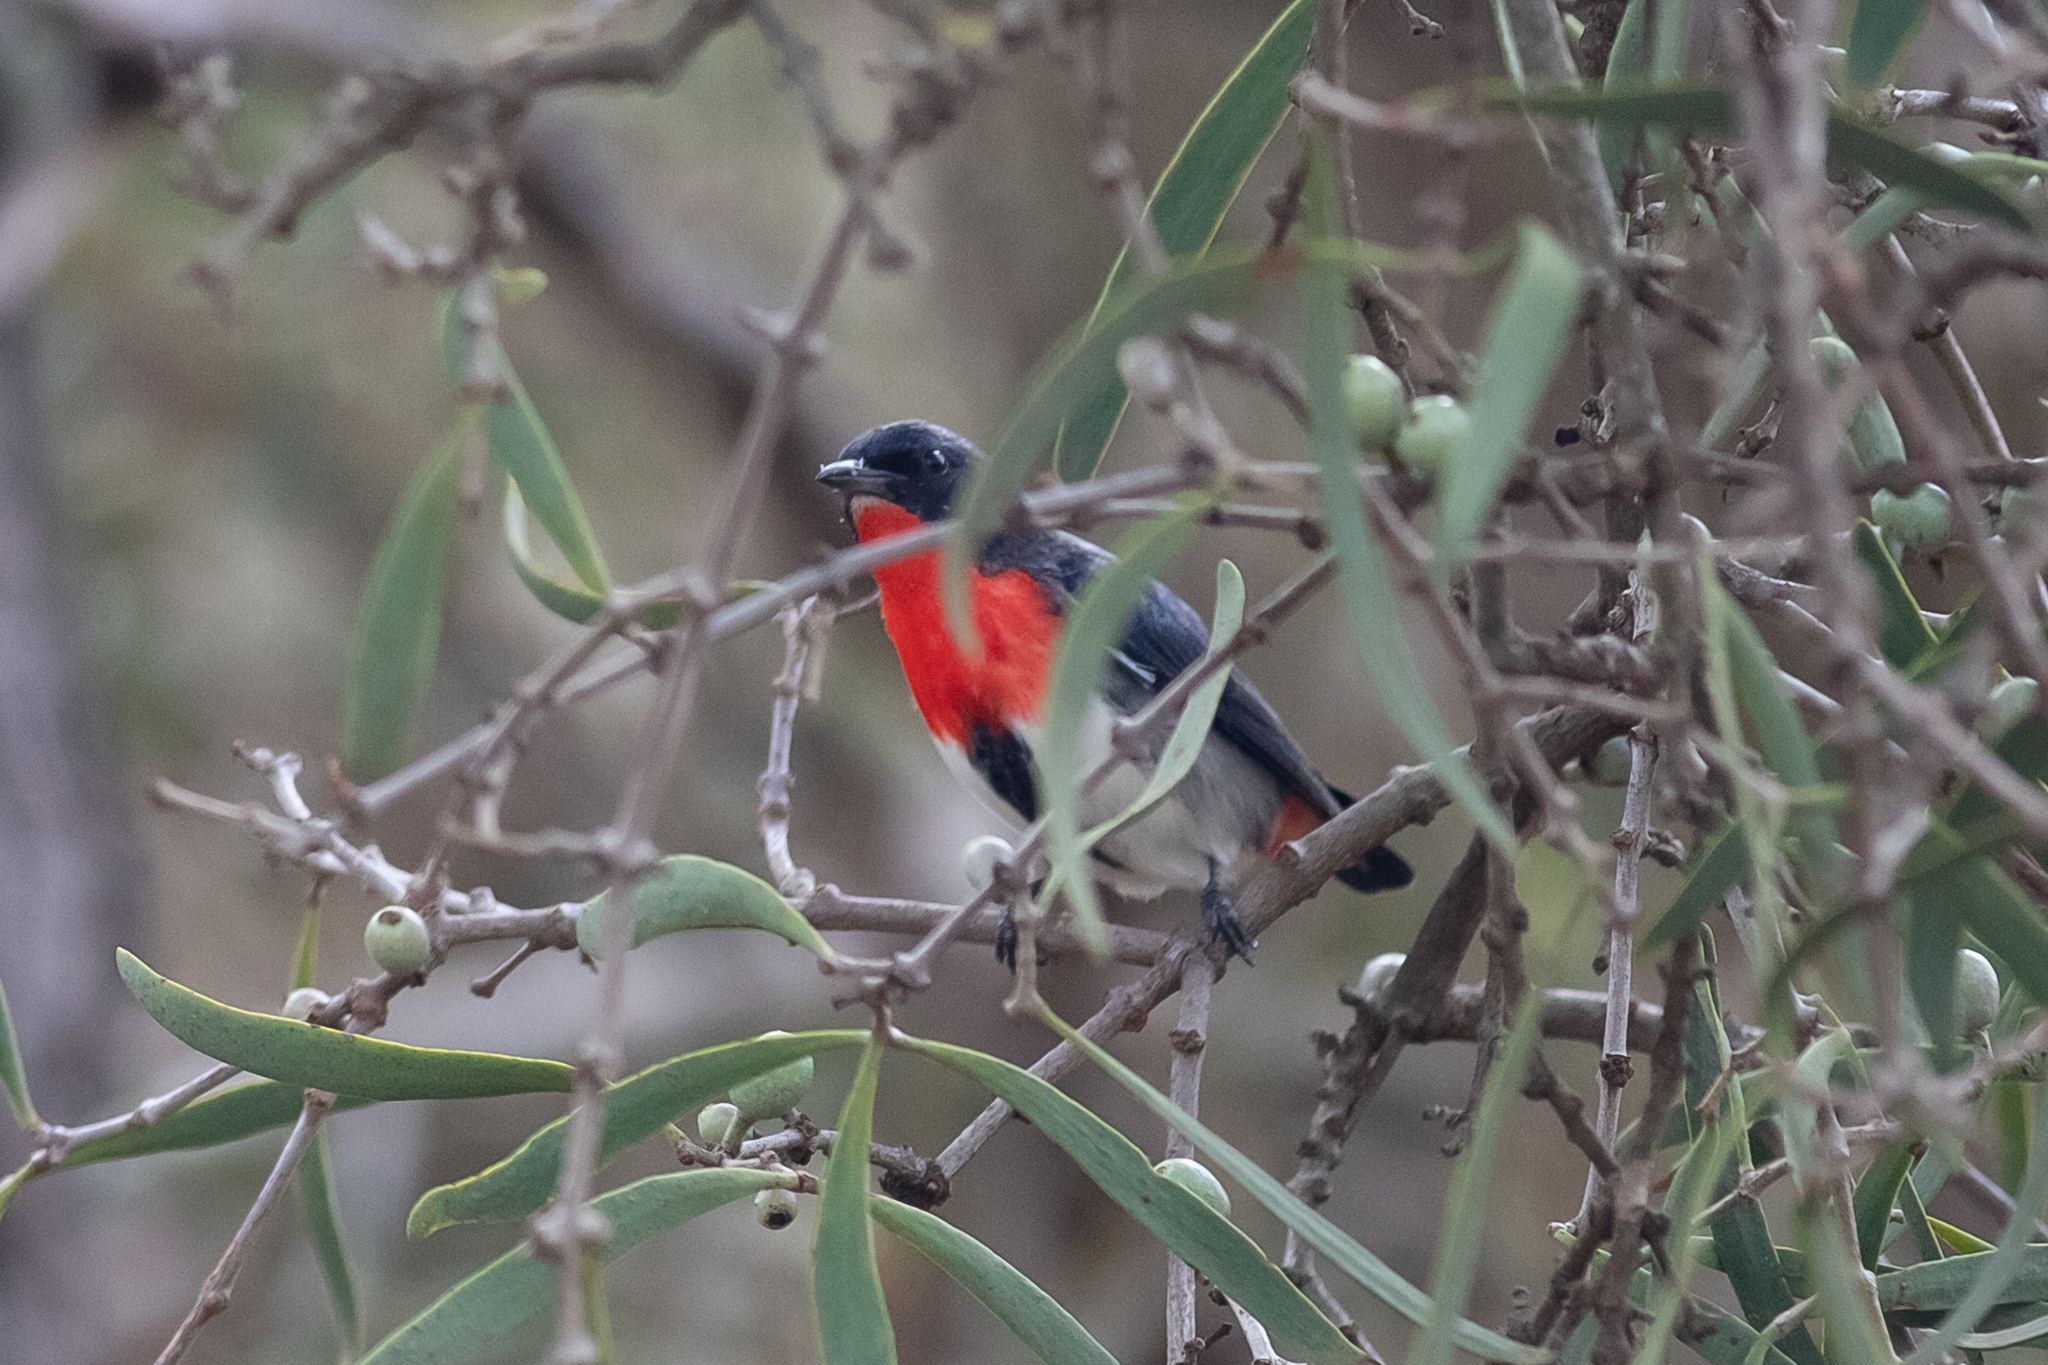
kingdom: Animalia
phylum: Chordata
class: Aves
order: Passeriformes
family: Dicaeidae
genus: Dicaeum
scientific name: Dicaeum hirundinaceum
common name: Mistletoebird
